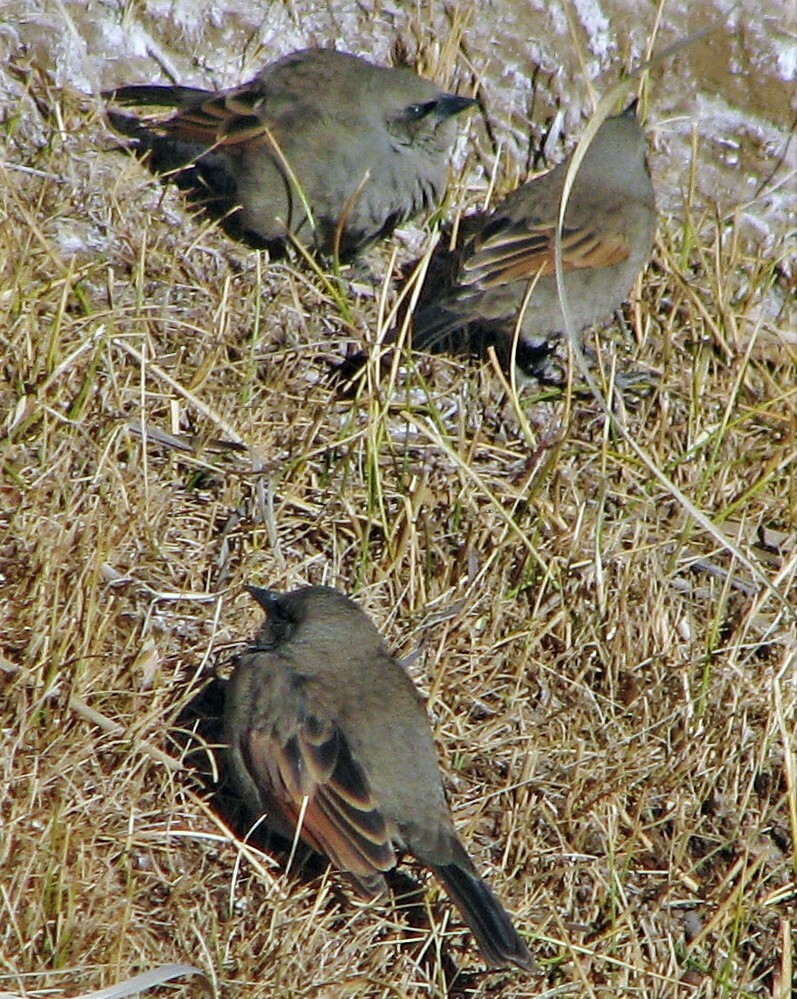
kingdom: Animalia
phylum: Chordata
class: Aves
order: Passeriformes
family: Icteridae
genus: Agelaioides
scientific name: Agelaioides badius
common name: Baywing
